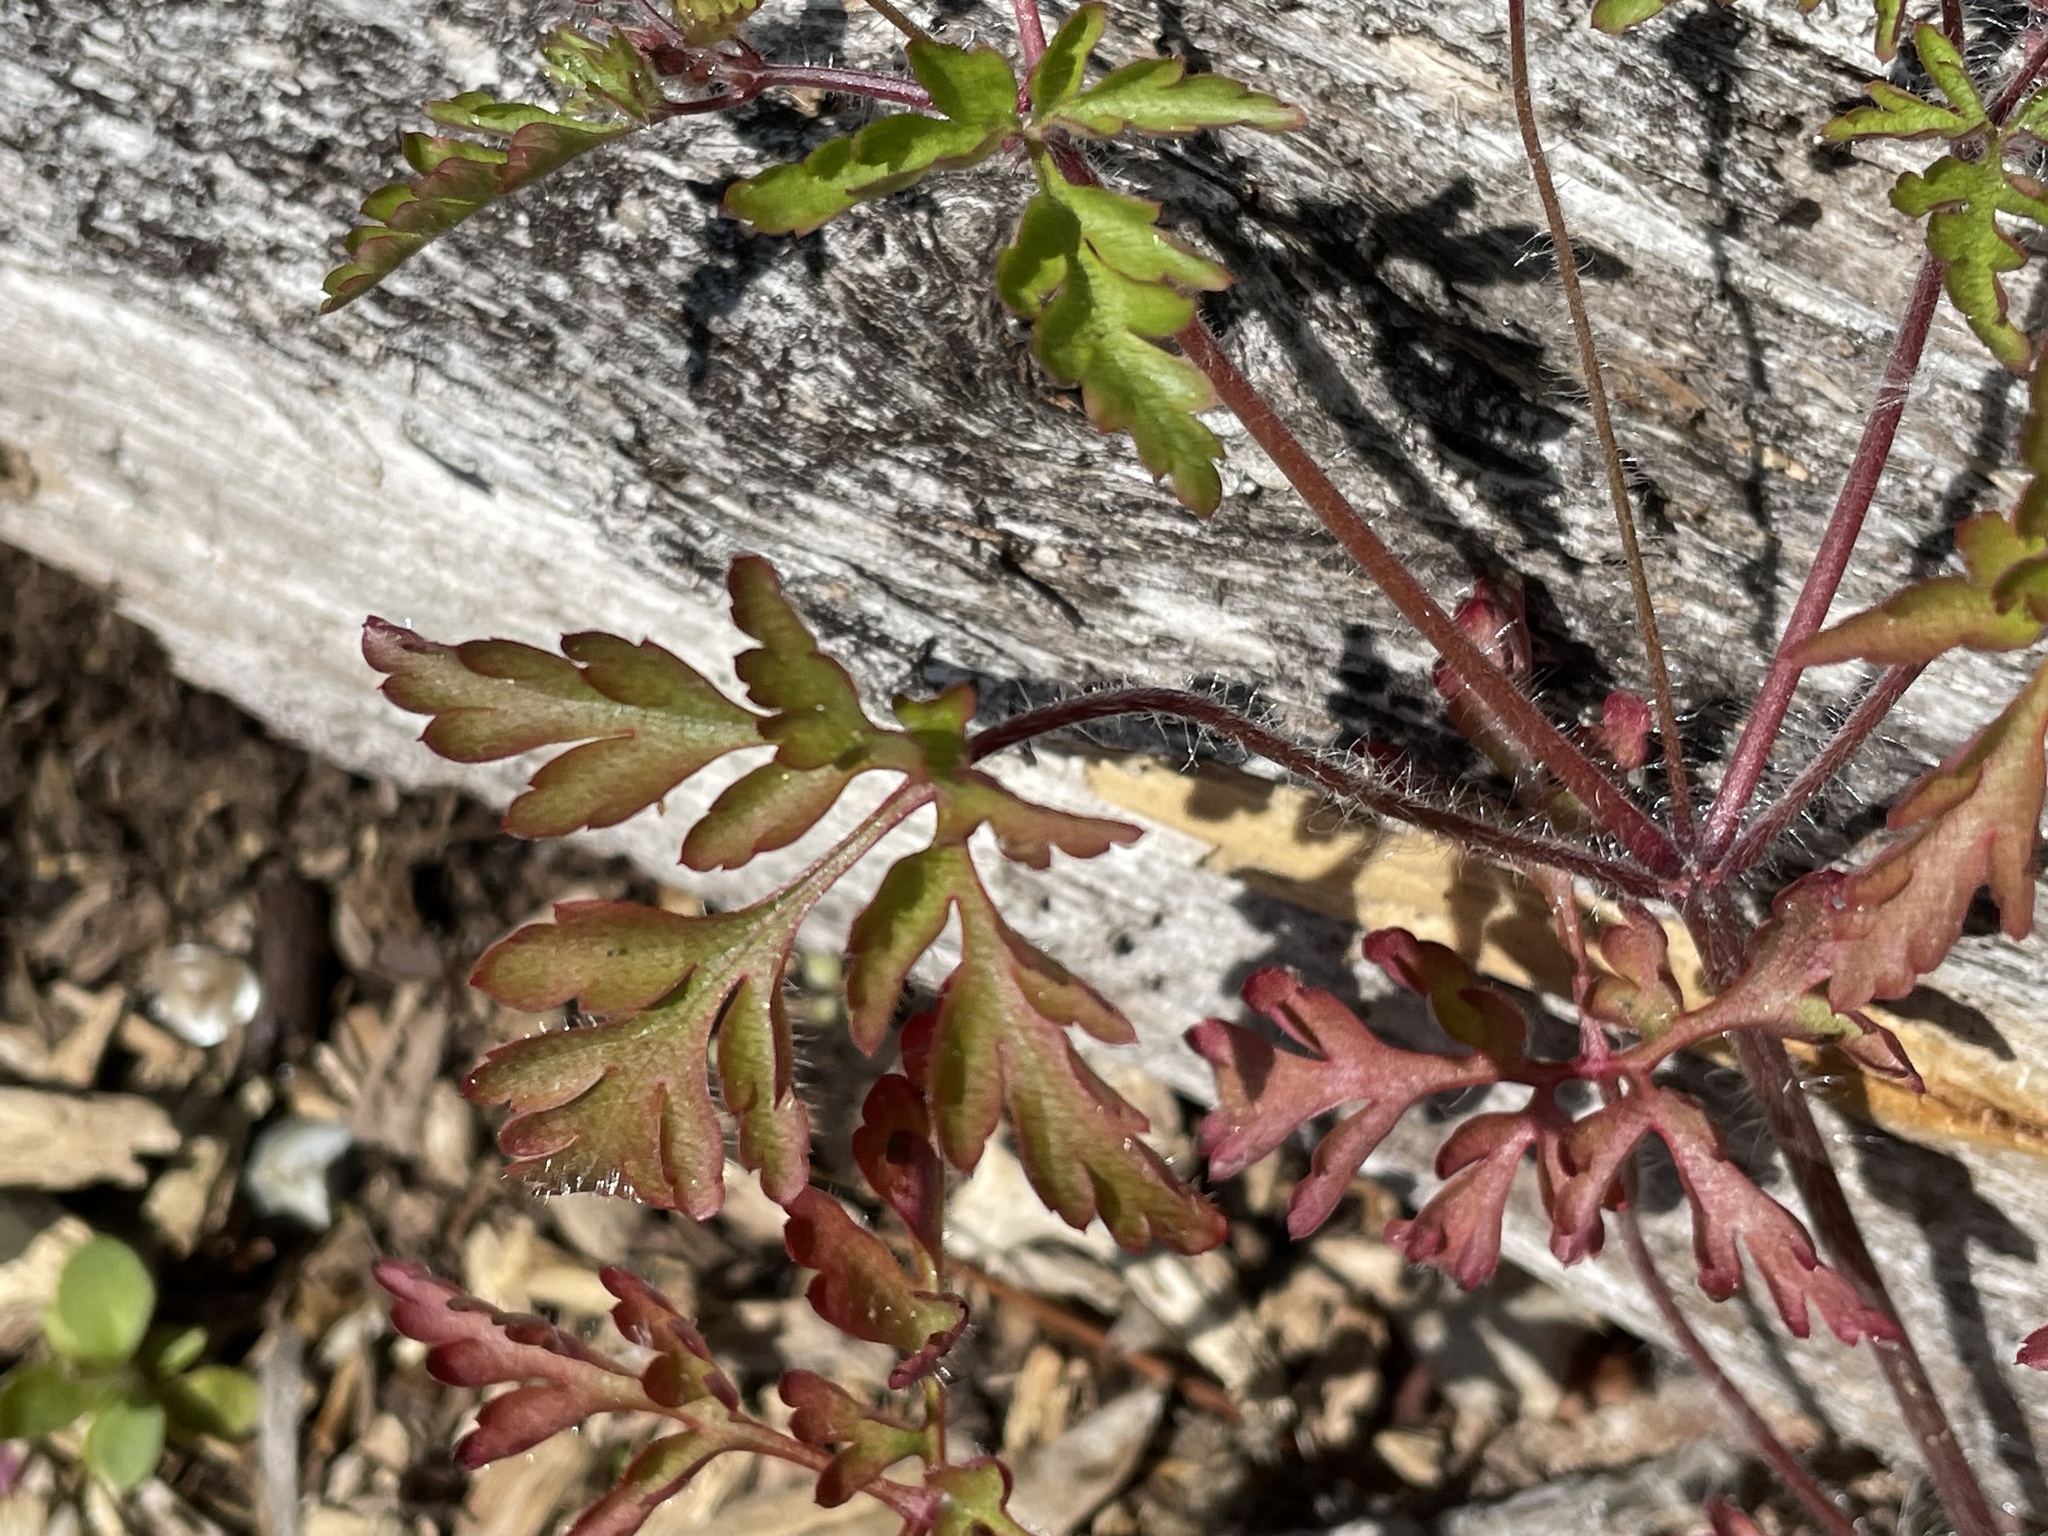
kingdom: Plantae
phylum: Tracheophyta
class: Magnoliopsida
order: Geraniales
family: Geraniaceae
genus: Geranium
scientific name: Geranium robertianum
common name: Herb-robert
